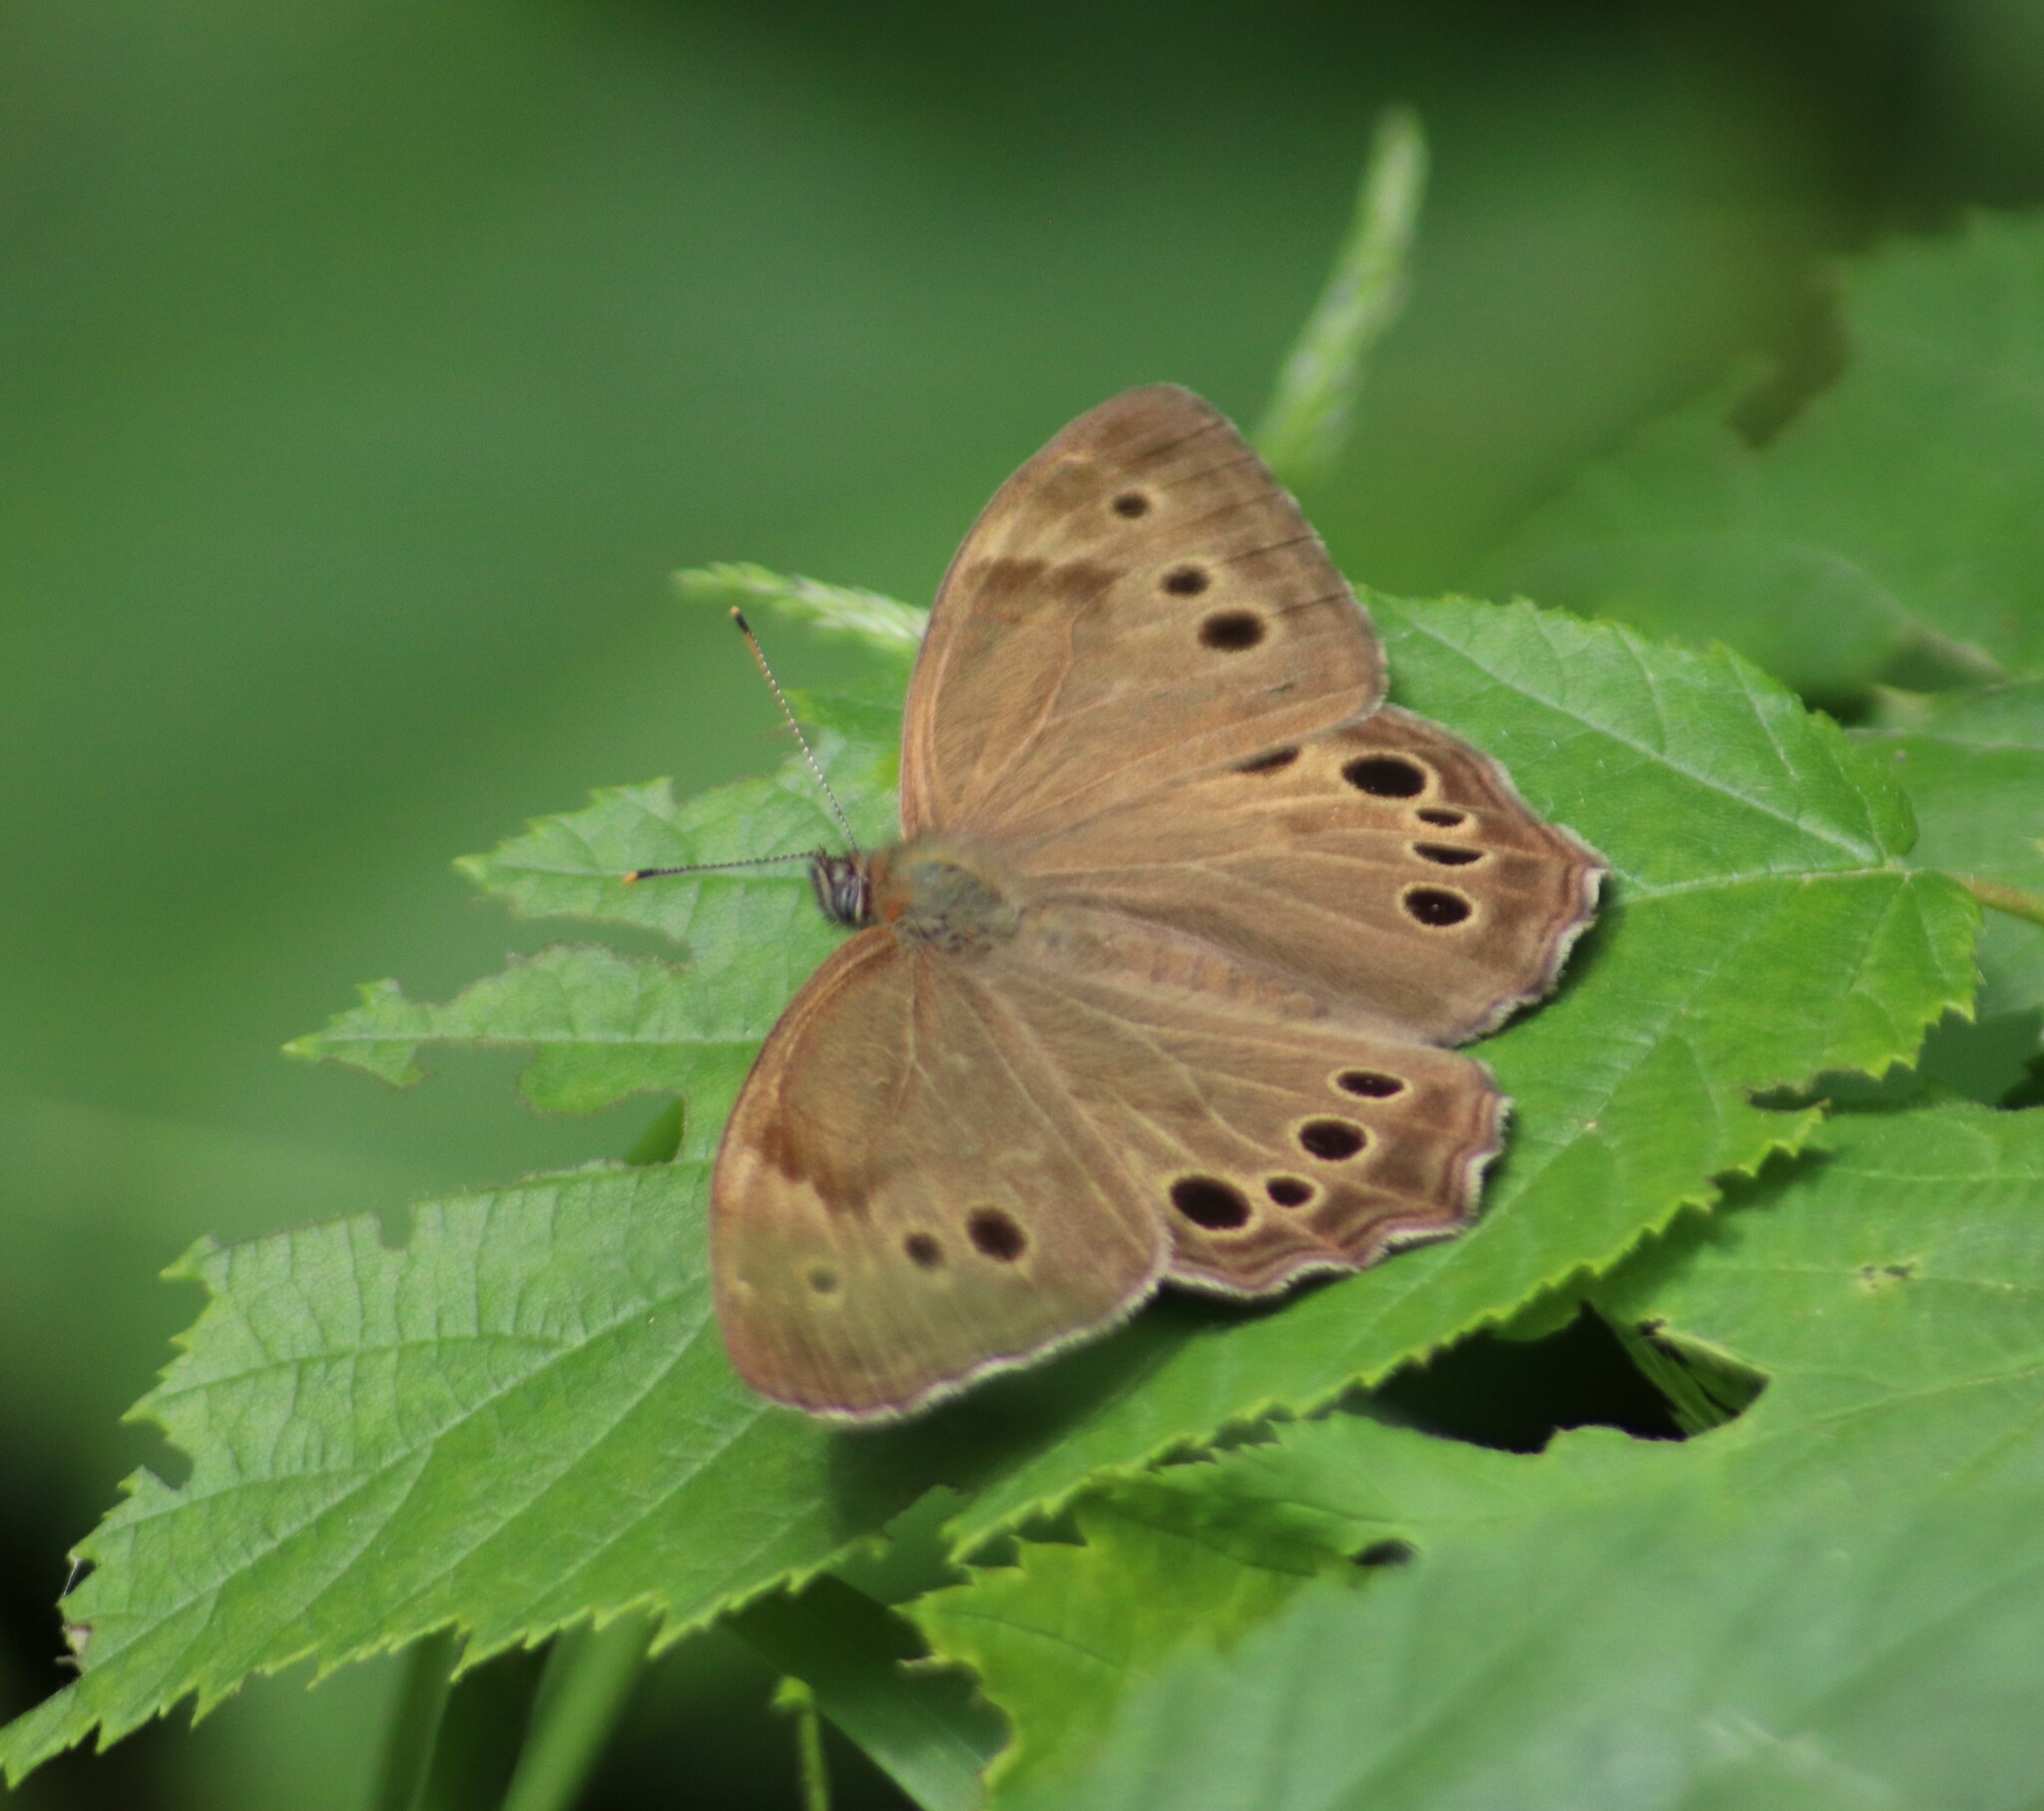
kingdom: Animalia
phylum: Arthropoda
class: Insecta
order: Lepidoptera
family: Nymphalidae
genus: Lethe
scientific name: Lethe anthedon
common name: Northern pearly-eye
